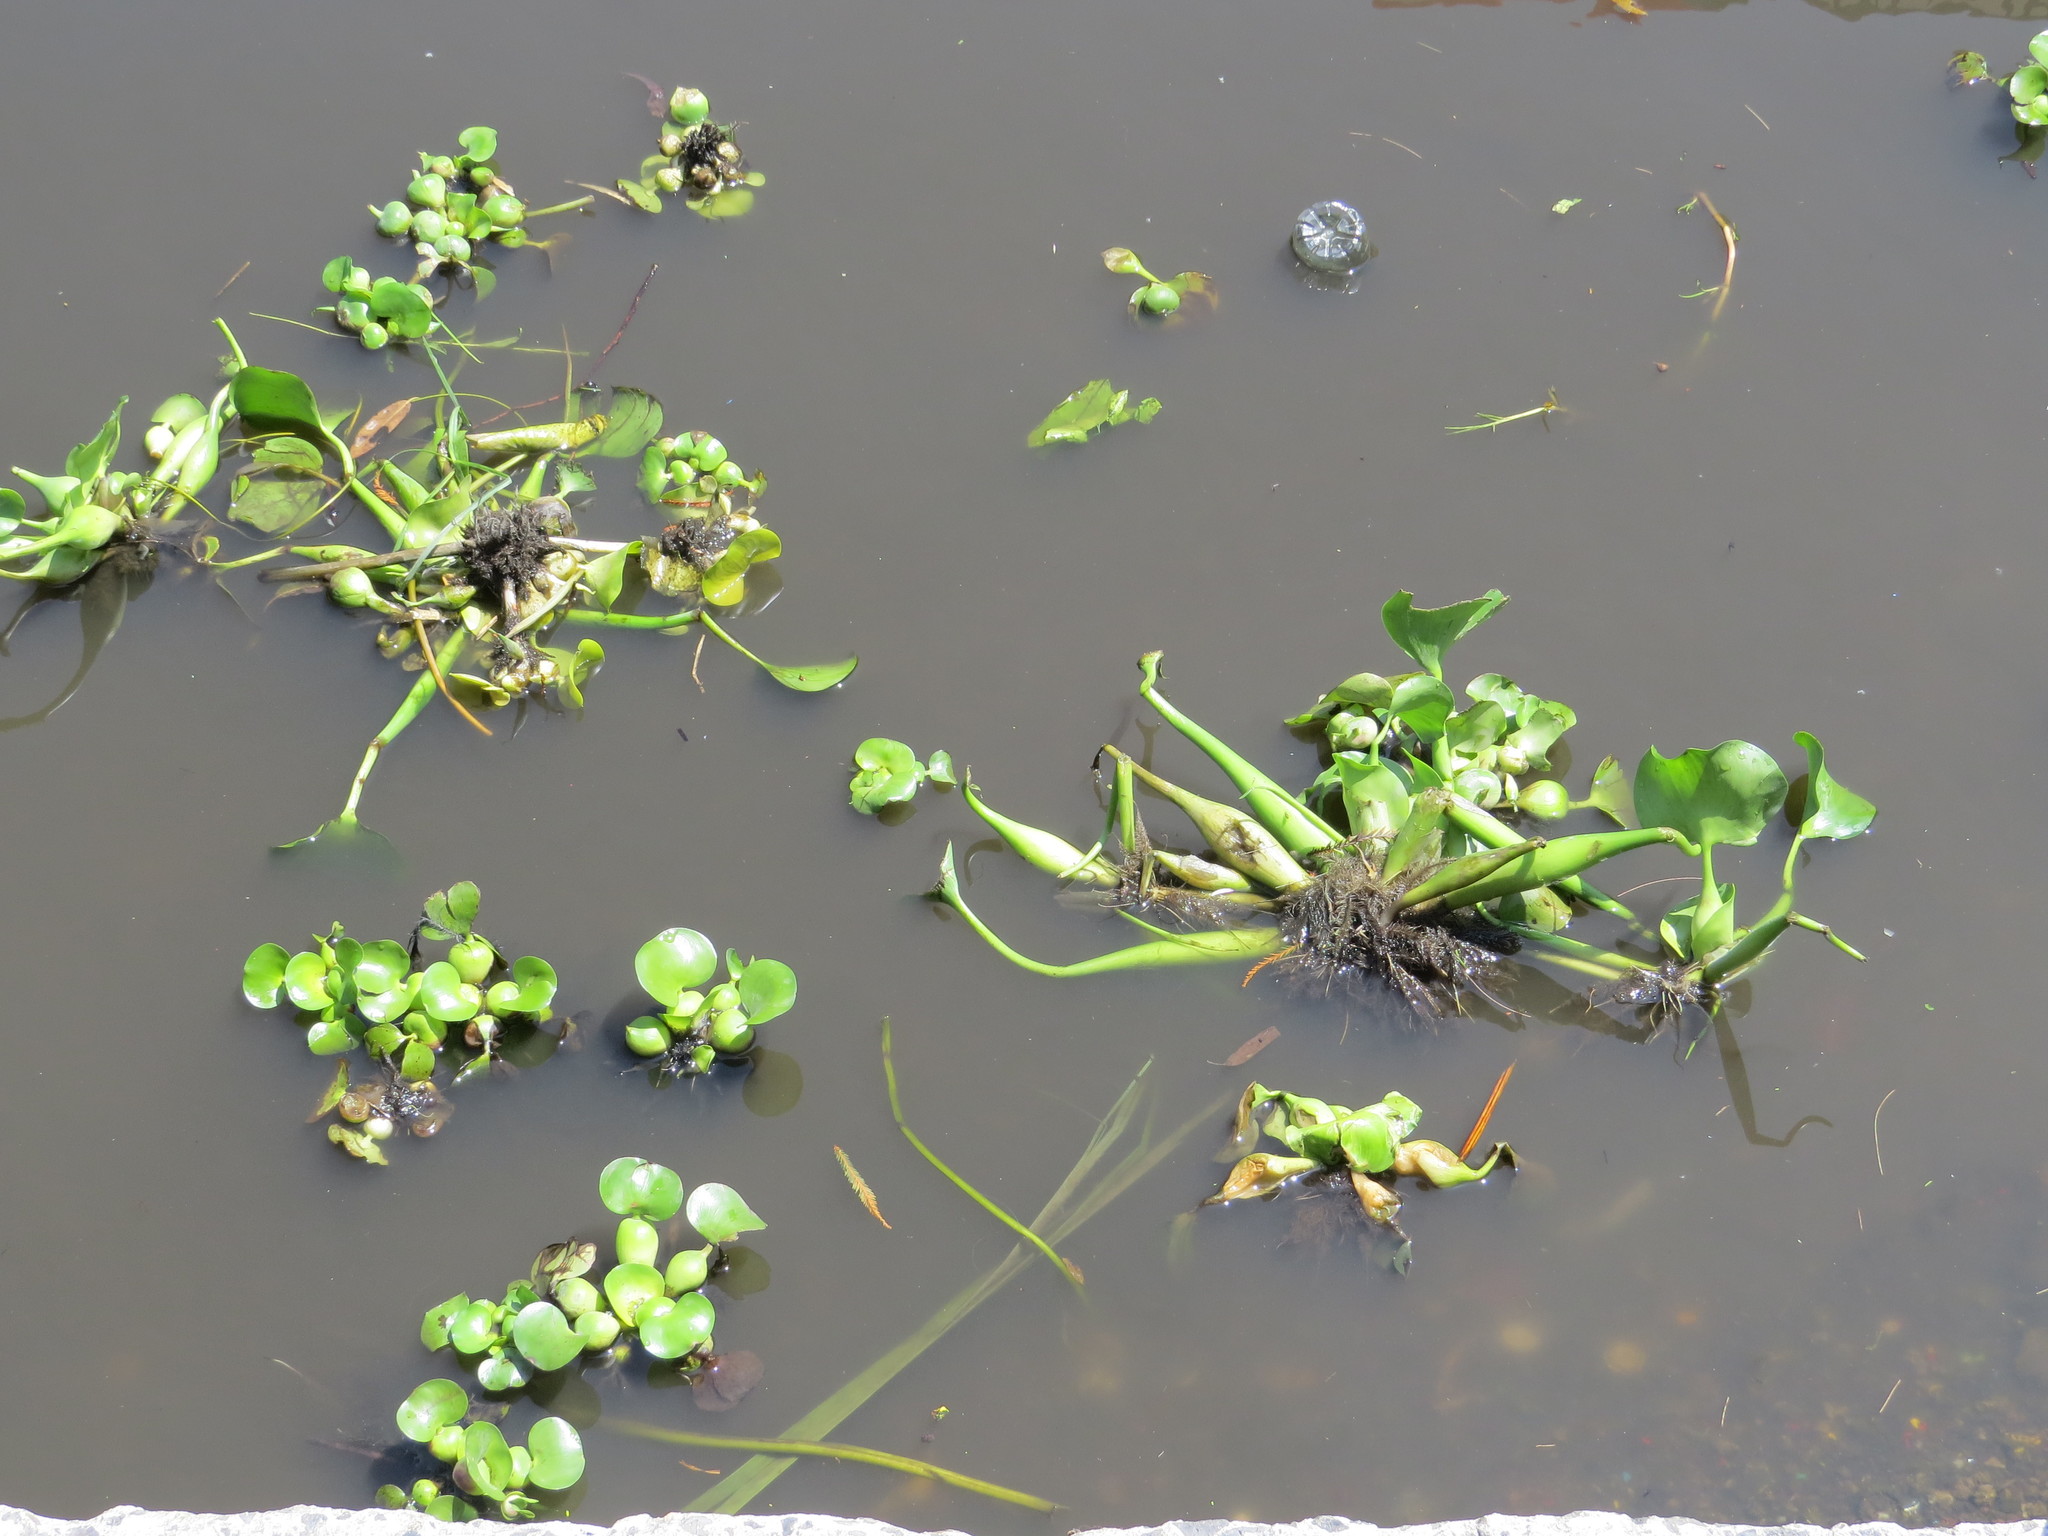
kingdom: Plantae
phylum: Tracheophyta
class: Liliopsida
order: Commelinales
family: Pontederiaceae
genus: Pontederia
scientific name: Pontederia crassipes
